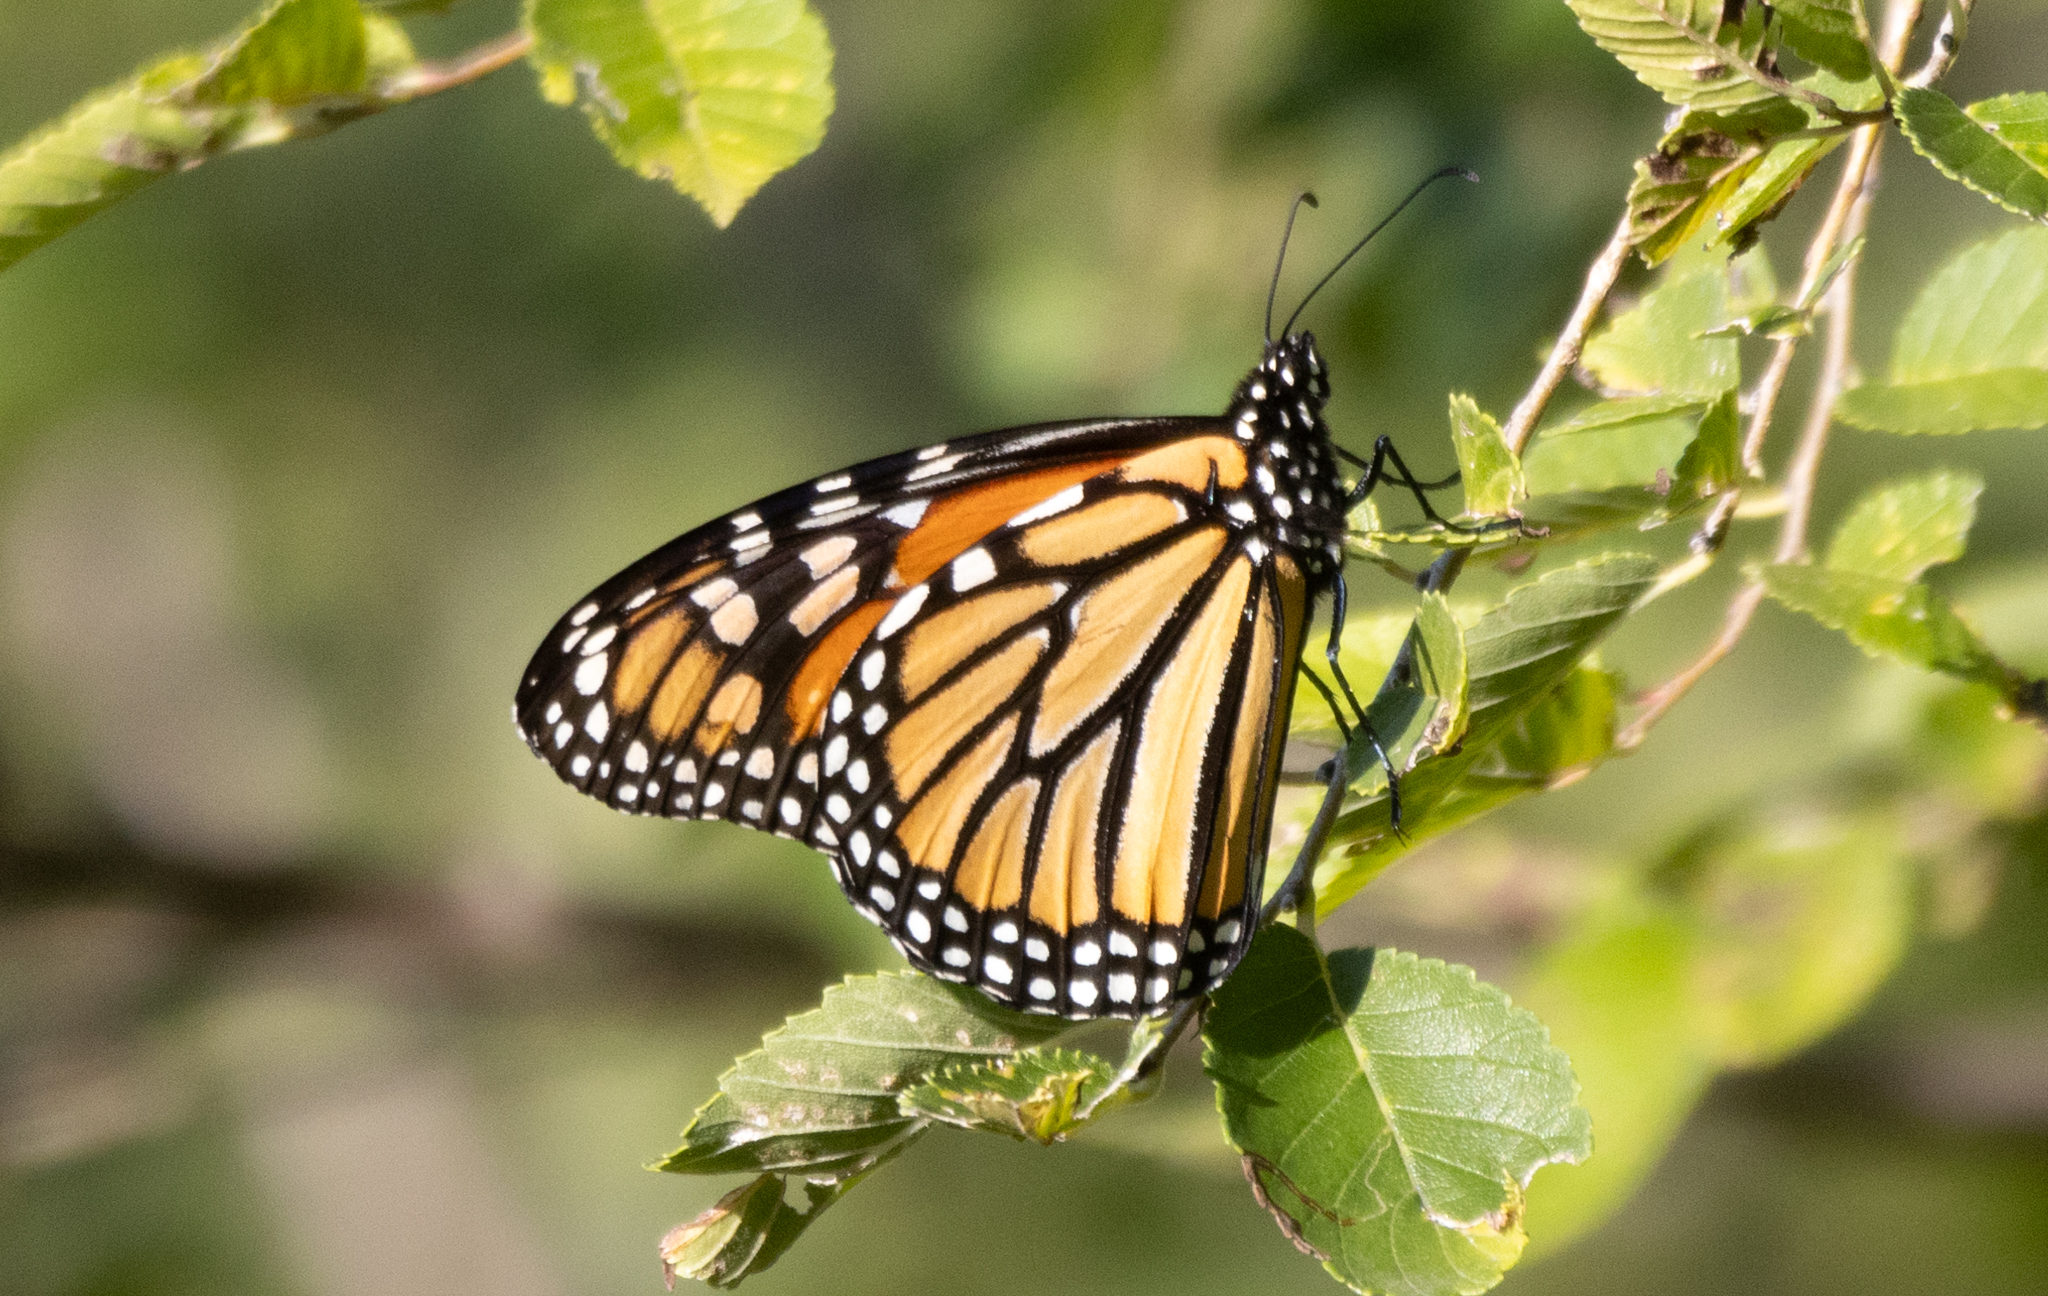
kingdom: Animalia
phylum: Arthropoda
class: Insecta
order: Lepidoptera
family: Nymphalidae
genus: Danaus
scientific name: Danaus plexippus
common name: Monarch
